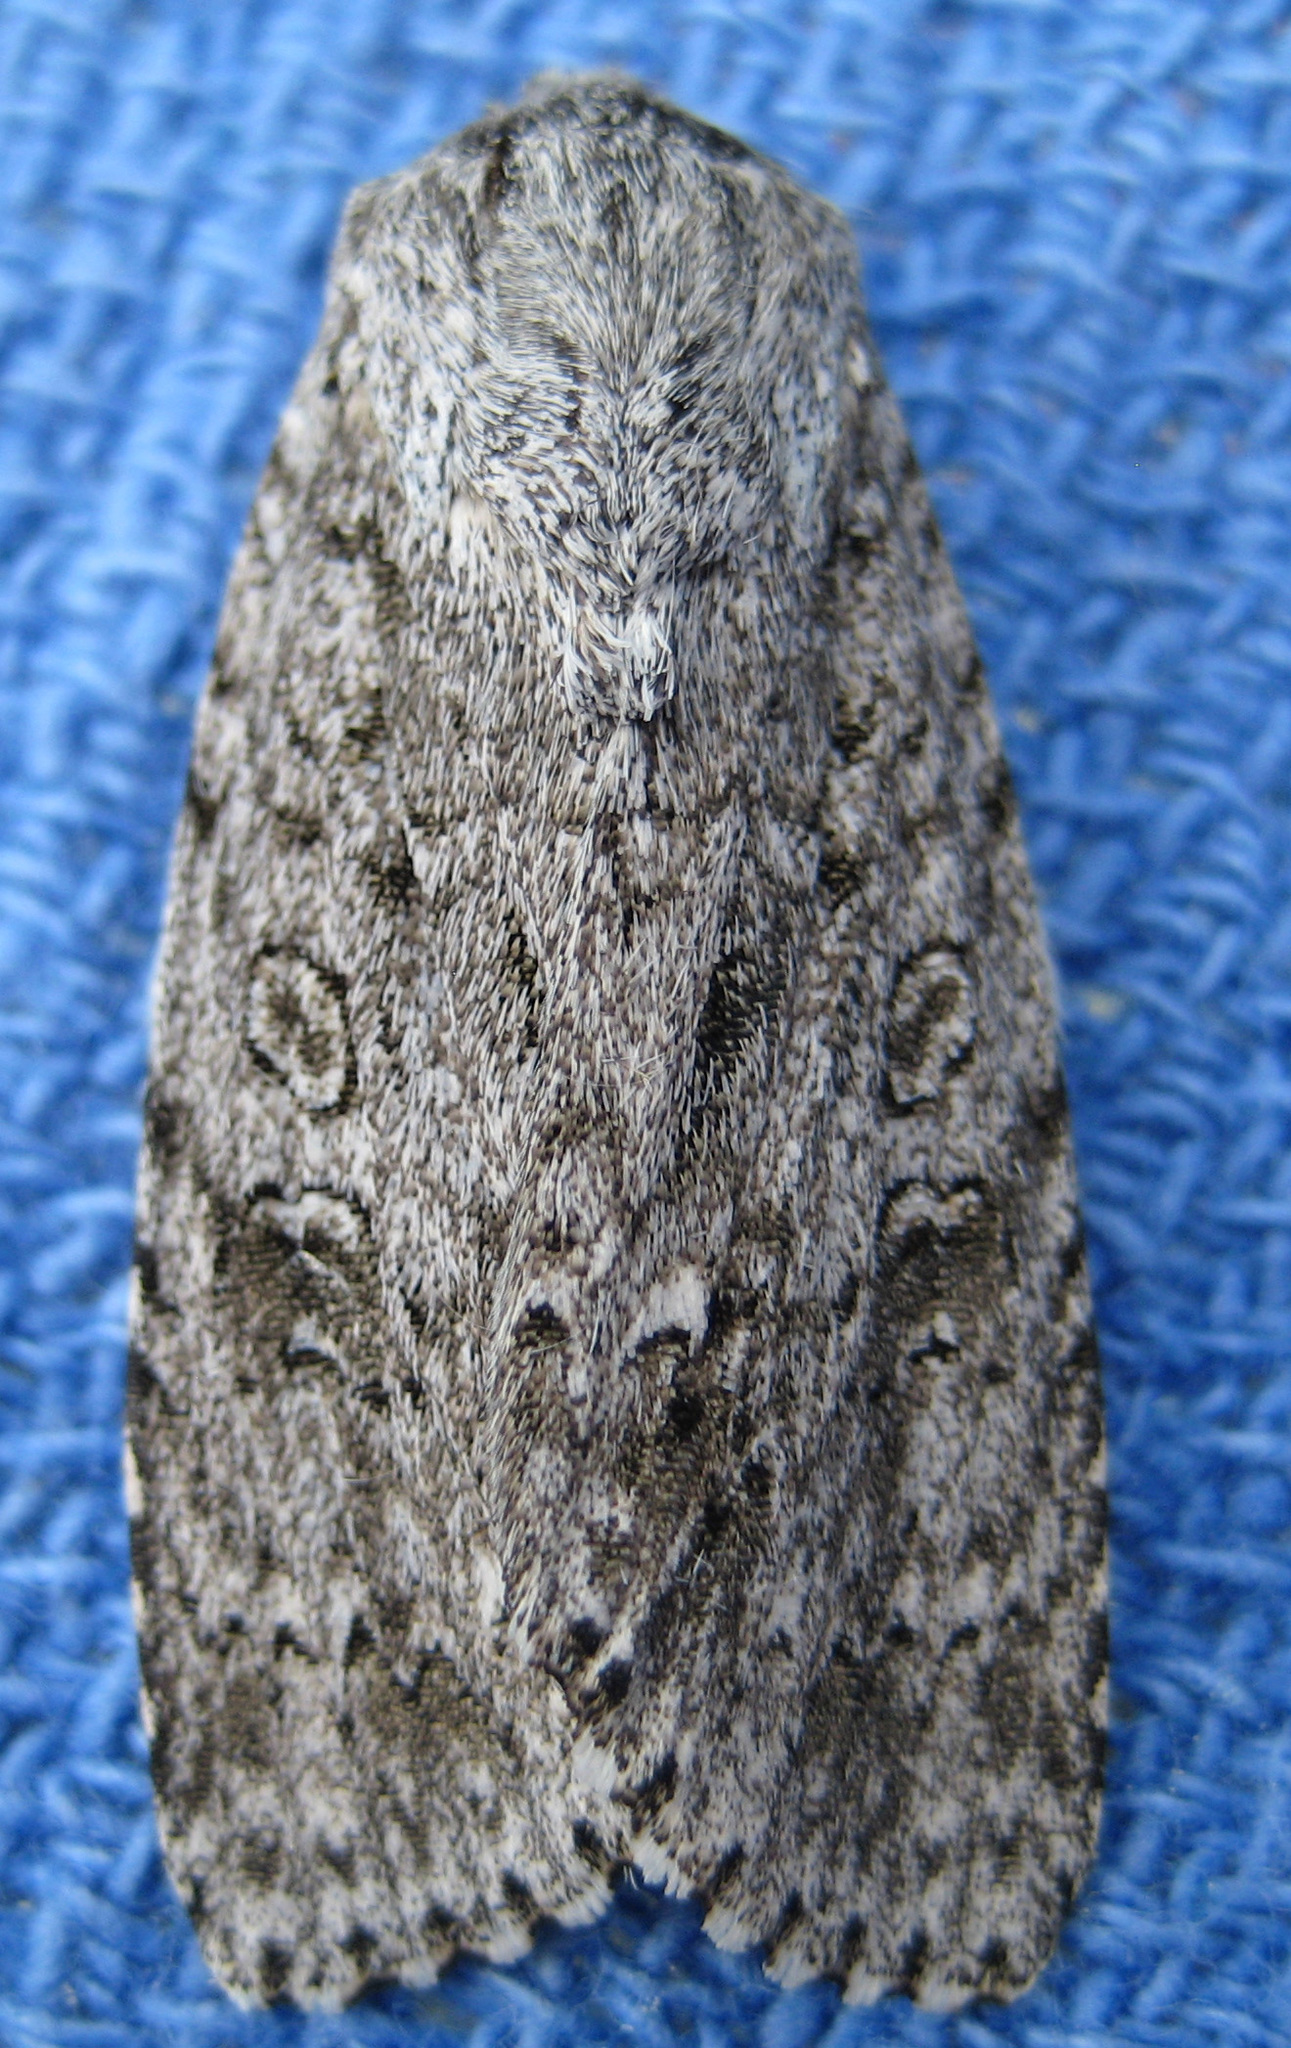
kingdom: Animalia
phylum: Arthropoda
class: Insecta
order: Lepidoptera
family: Noctuidae
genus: Acronicta
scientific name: Acronicta impleta
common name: Powdered dagger
